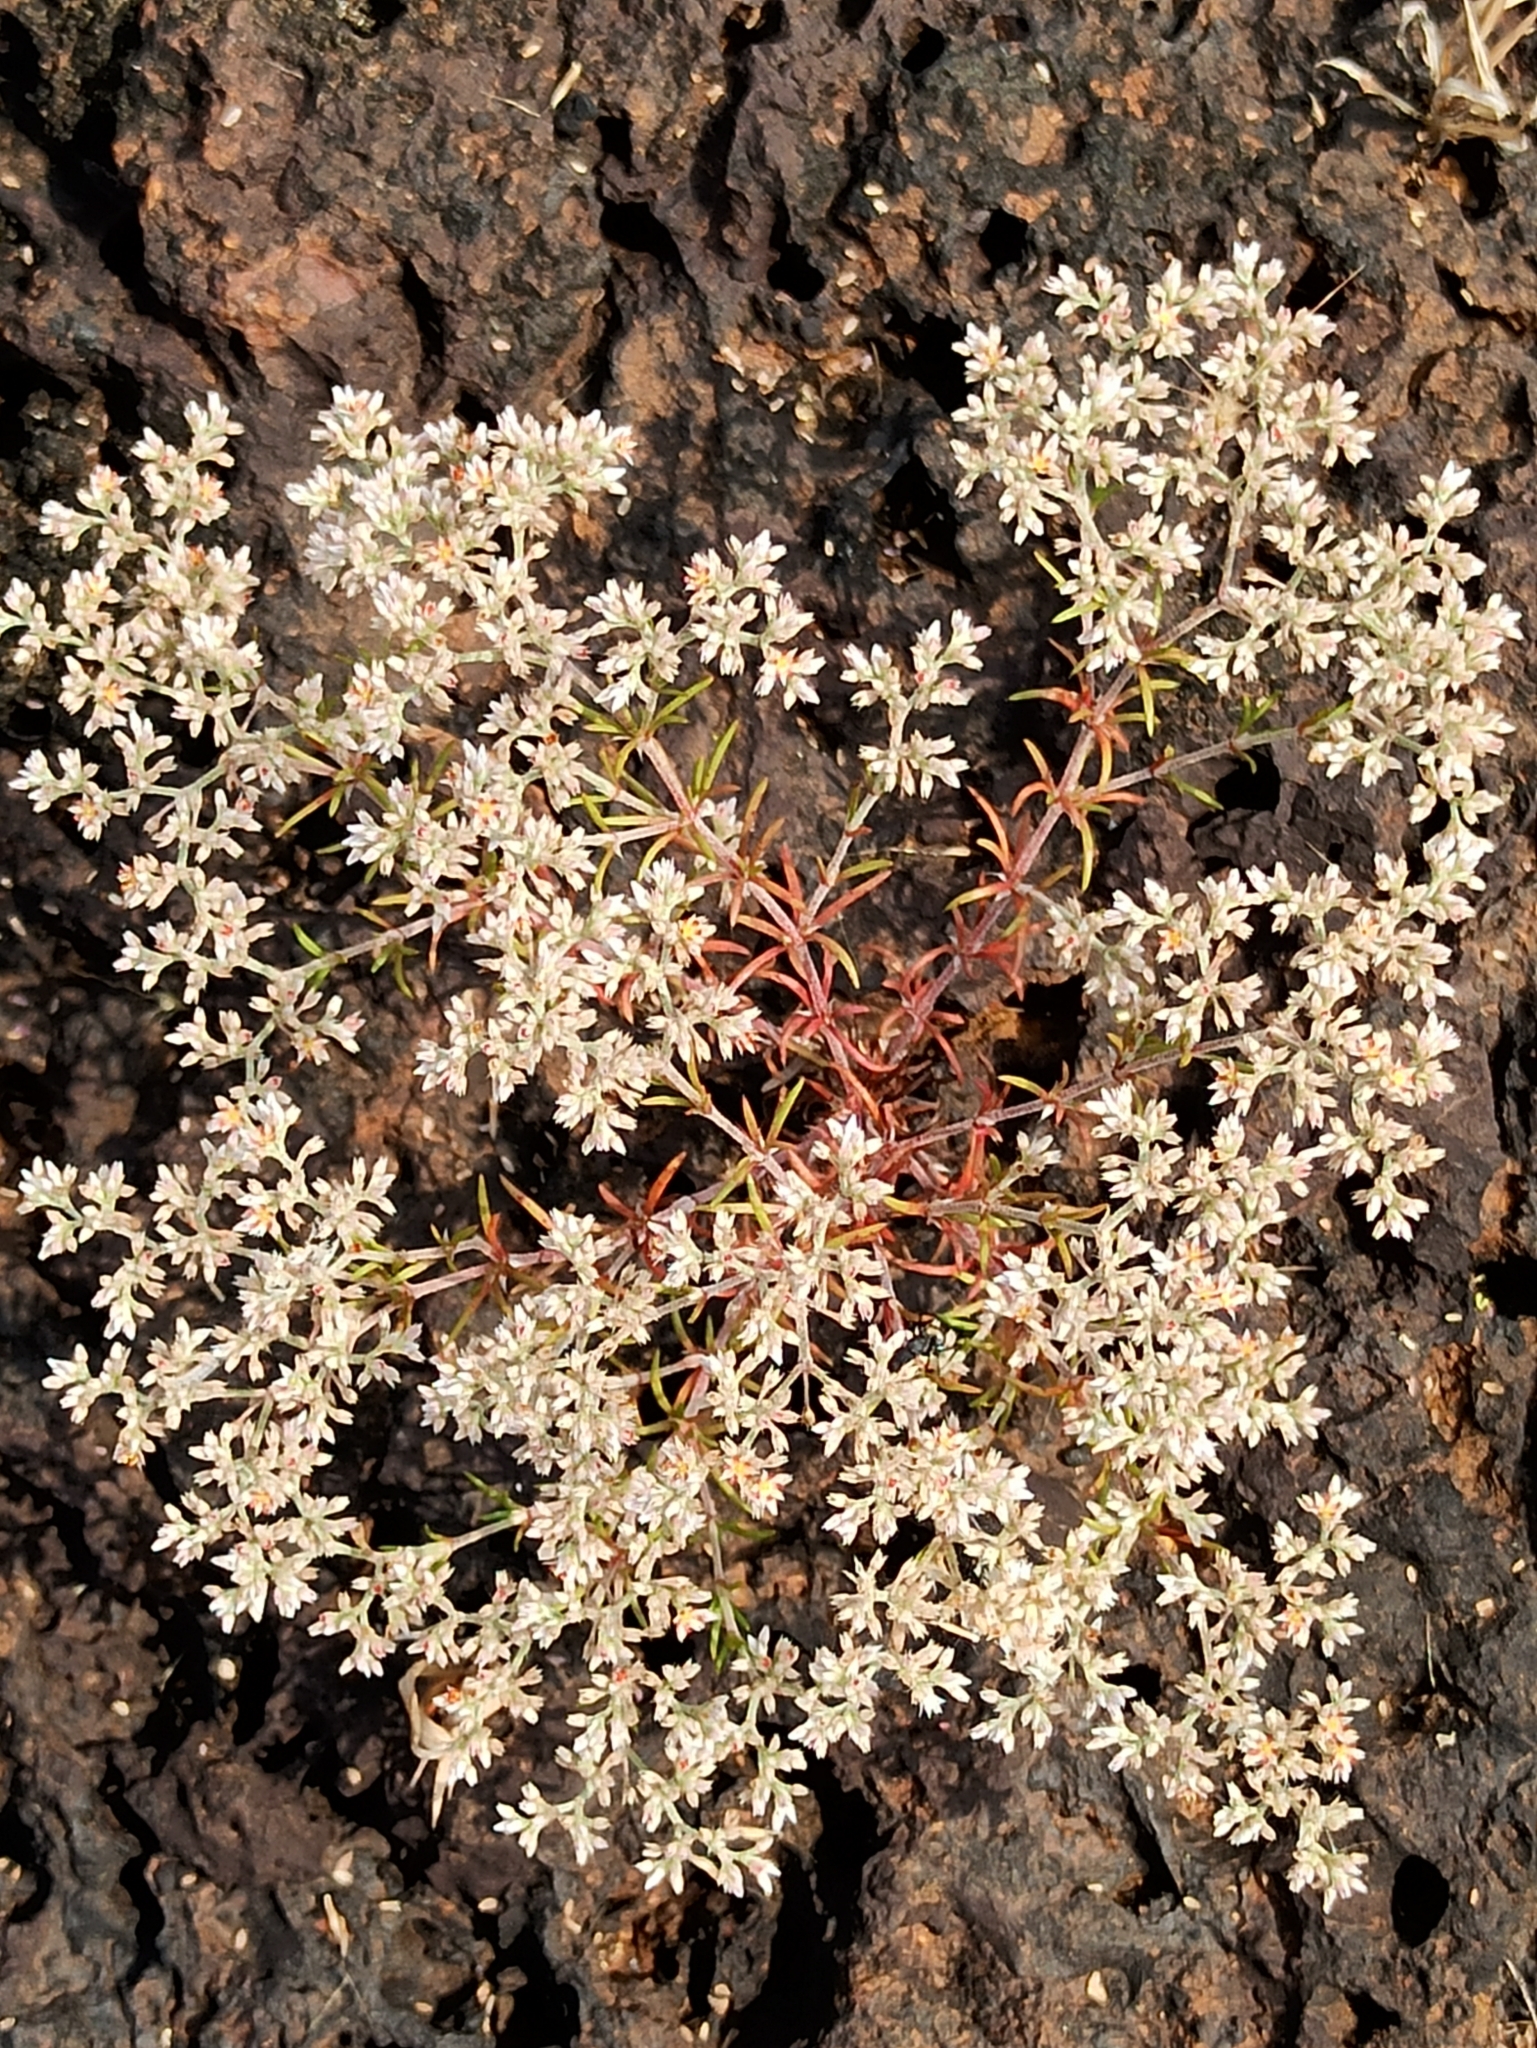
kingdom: Plantae
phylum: Tracheophyta
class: Magnoliopsida
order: Caryophyllales
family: Caryophyllaceae
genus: Polycarpaea
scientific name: Polycarpaea corymbosa
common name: Oldman's cap
